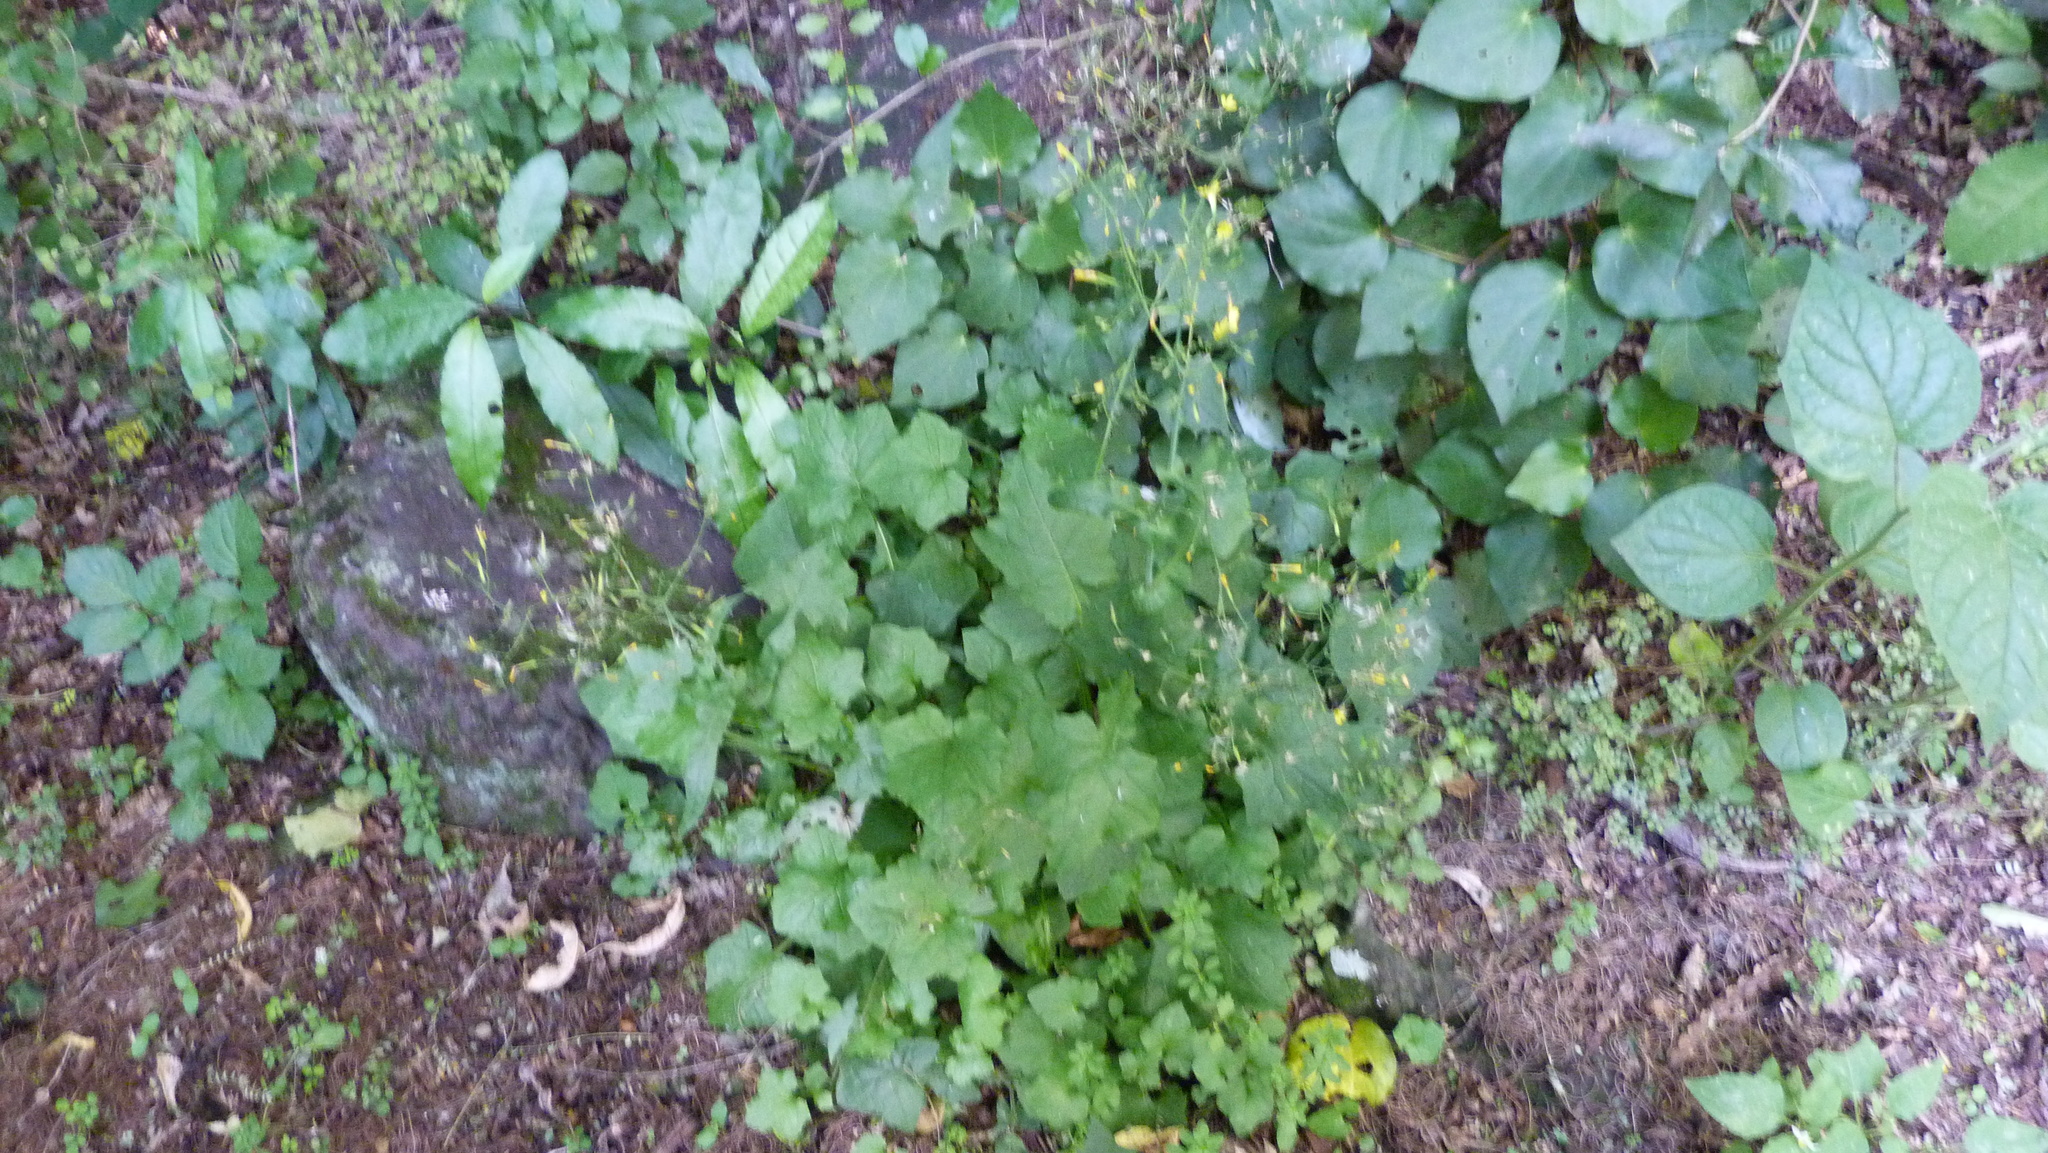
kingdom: Plantae
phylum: Tracheophyta
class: Magnoliopsida
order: Asterales
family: Asteraceae
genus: Mycelis
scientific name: Mycelis muralis
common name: Wall lettuce
